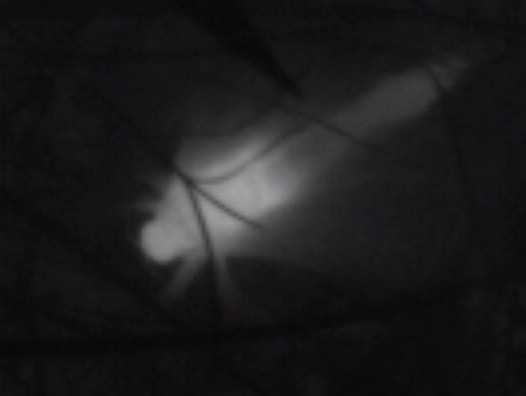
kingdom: Animalia
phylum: Arthropoda
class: Insecta
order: Lepidoptera
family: Hepialidae
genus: Aenetus
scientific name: Aenetus virescens
